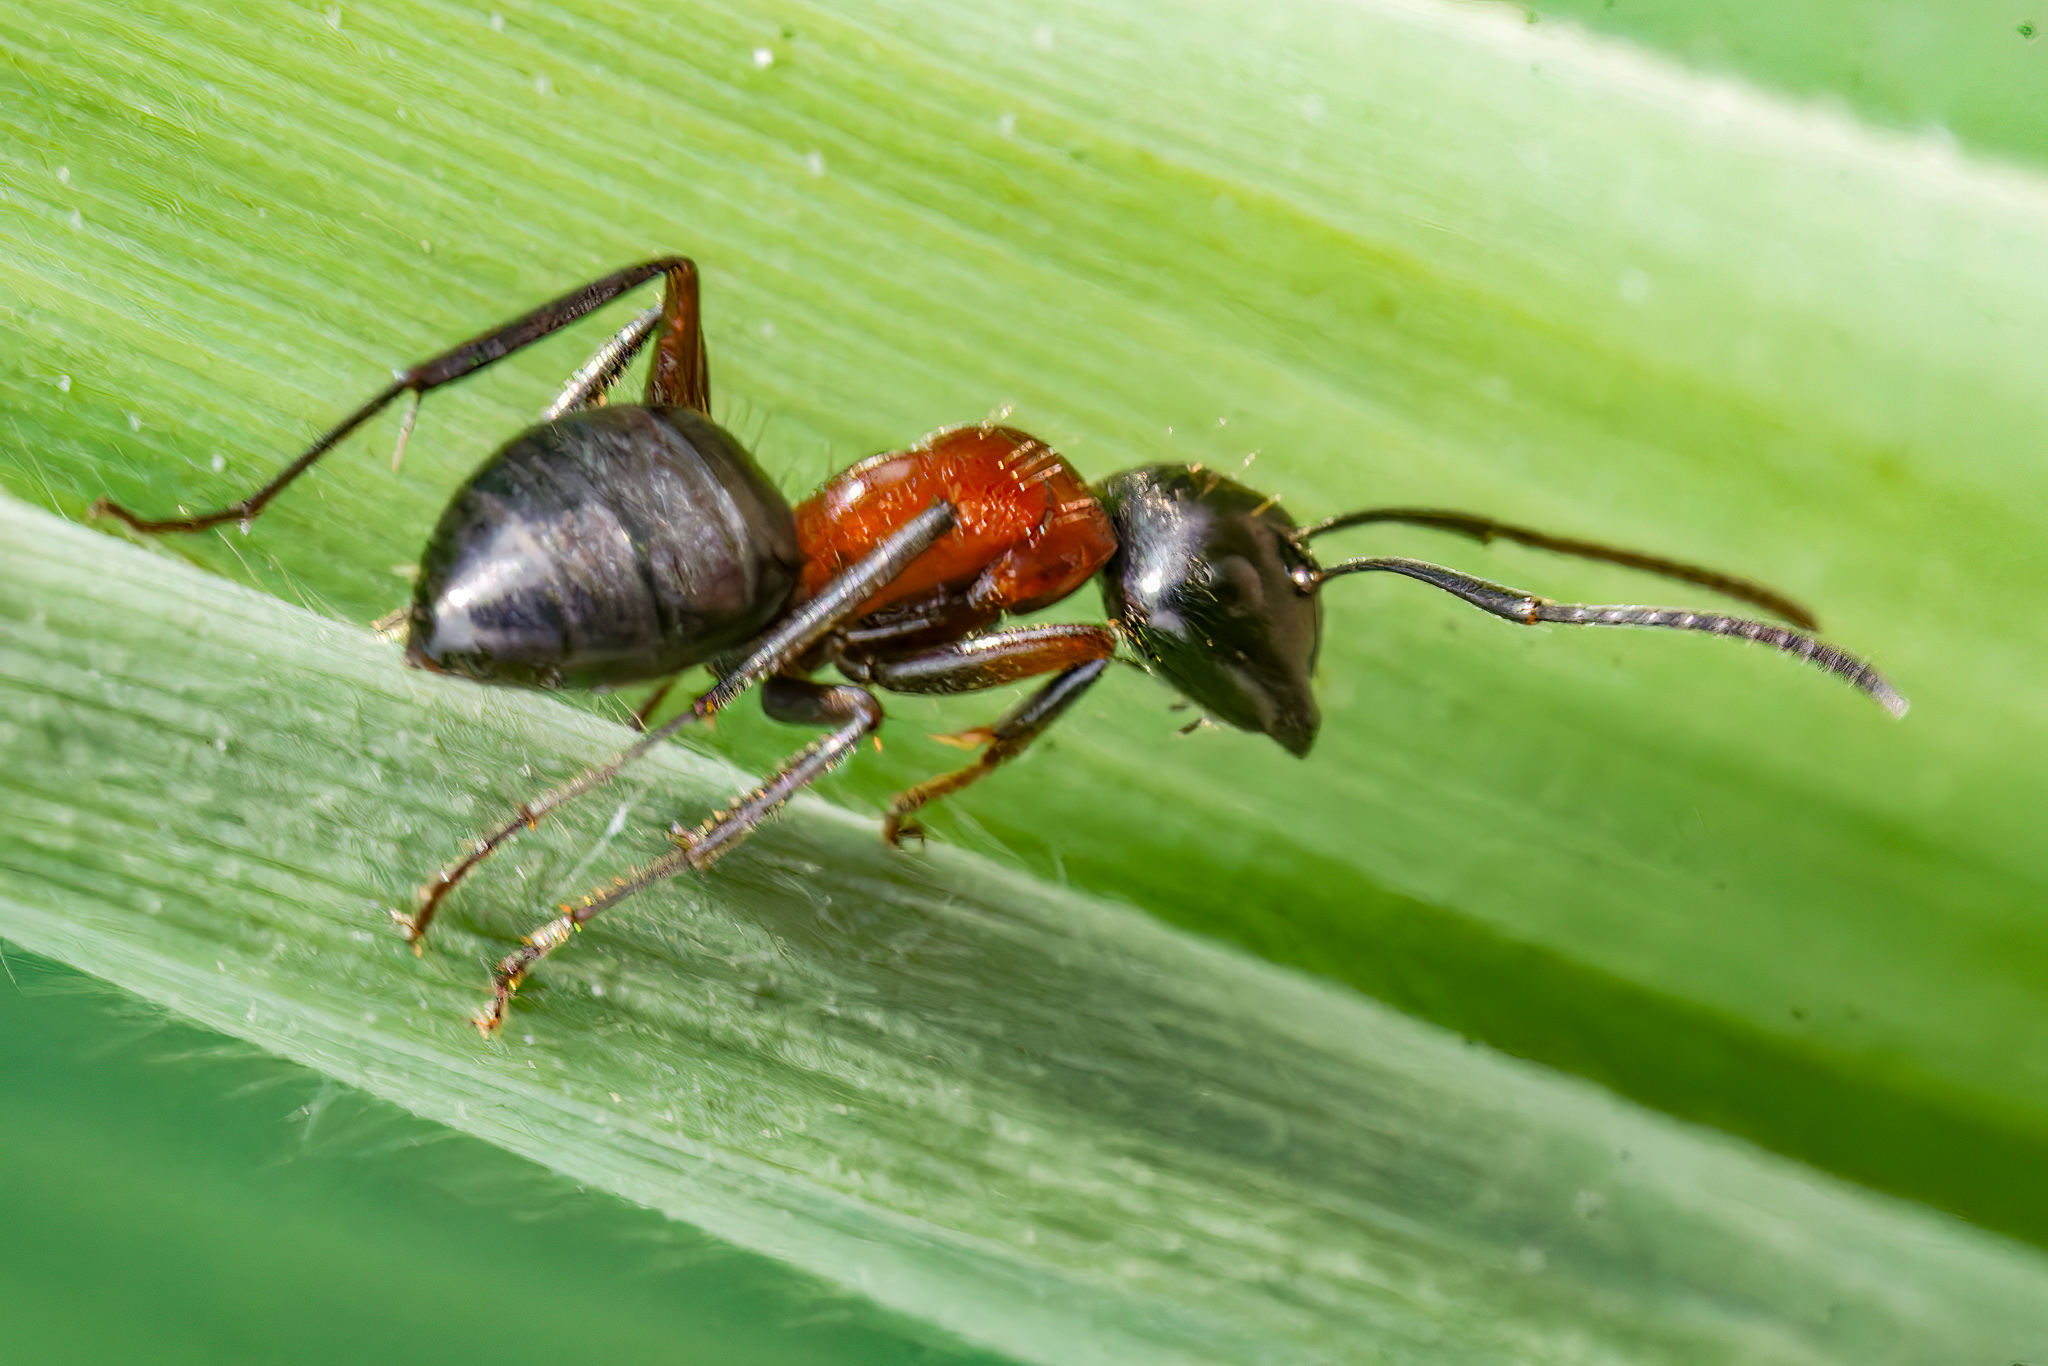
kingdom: Animalia
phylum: Arthropoda
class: Insecta
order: Hymenoptera
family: Formicidae
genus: Camponotus
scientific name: Camponotus novaeboracensis
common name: New york carpenter ant
